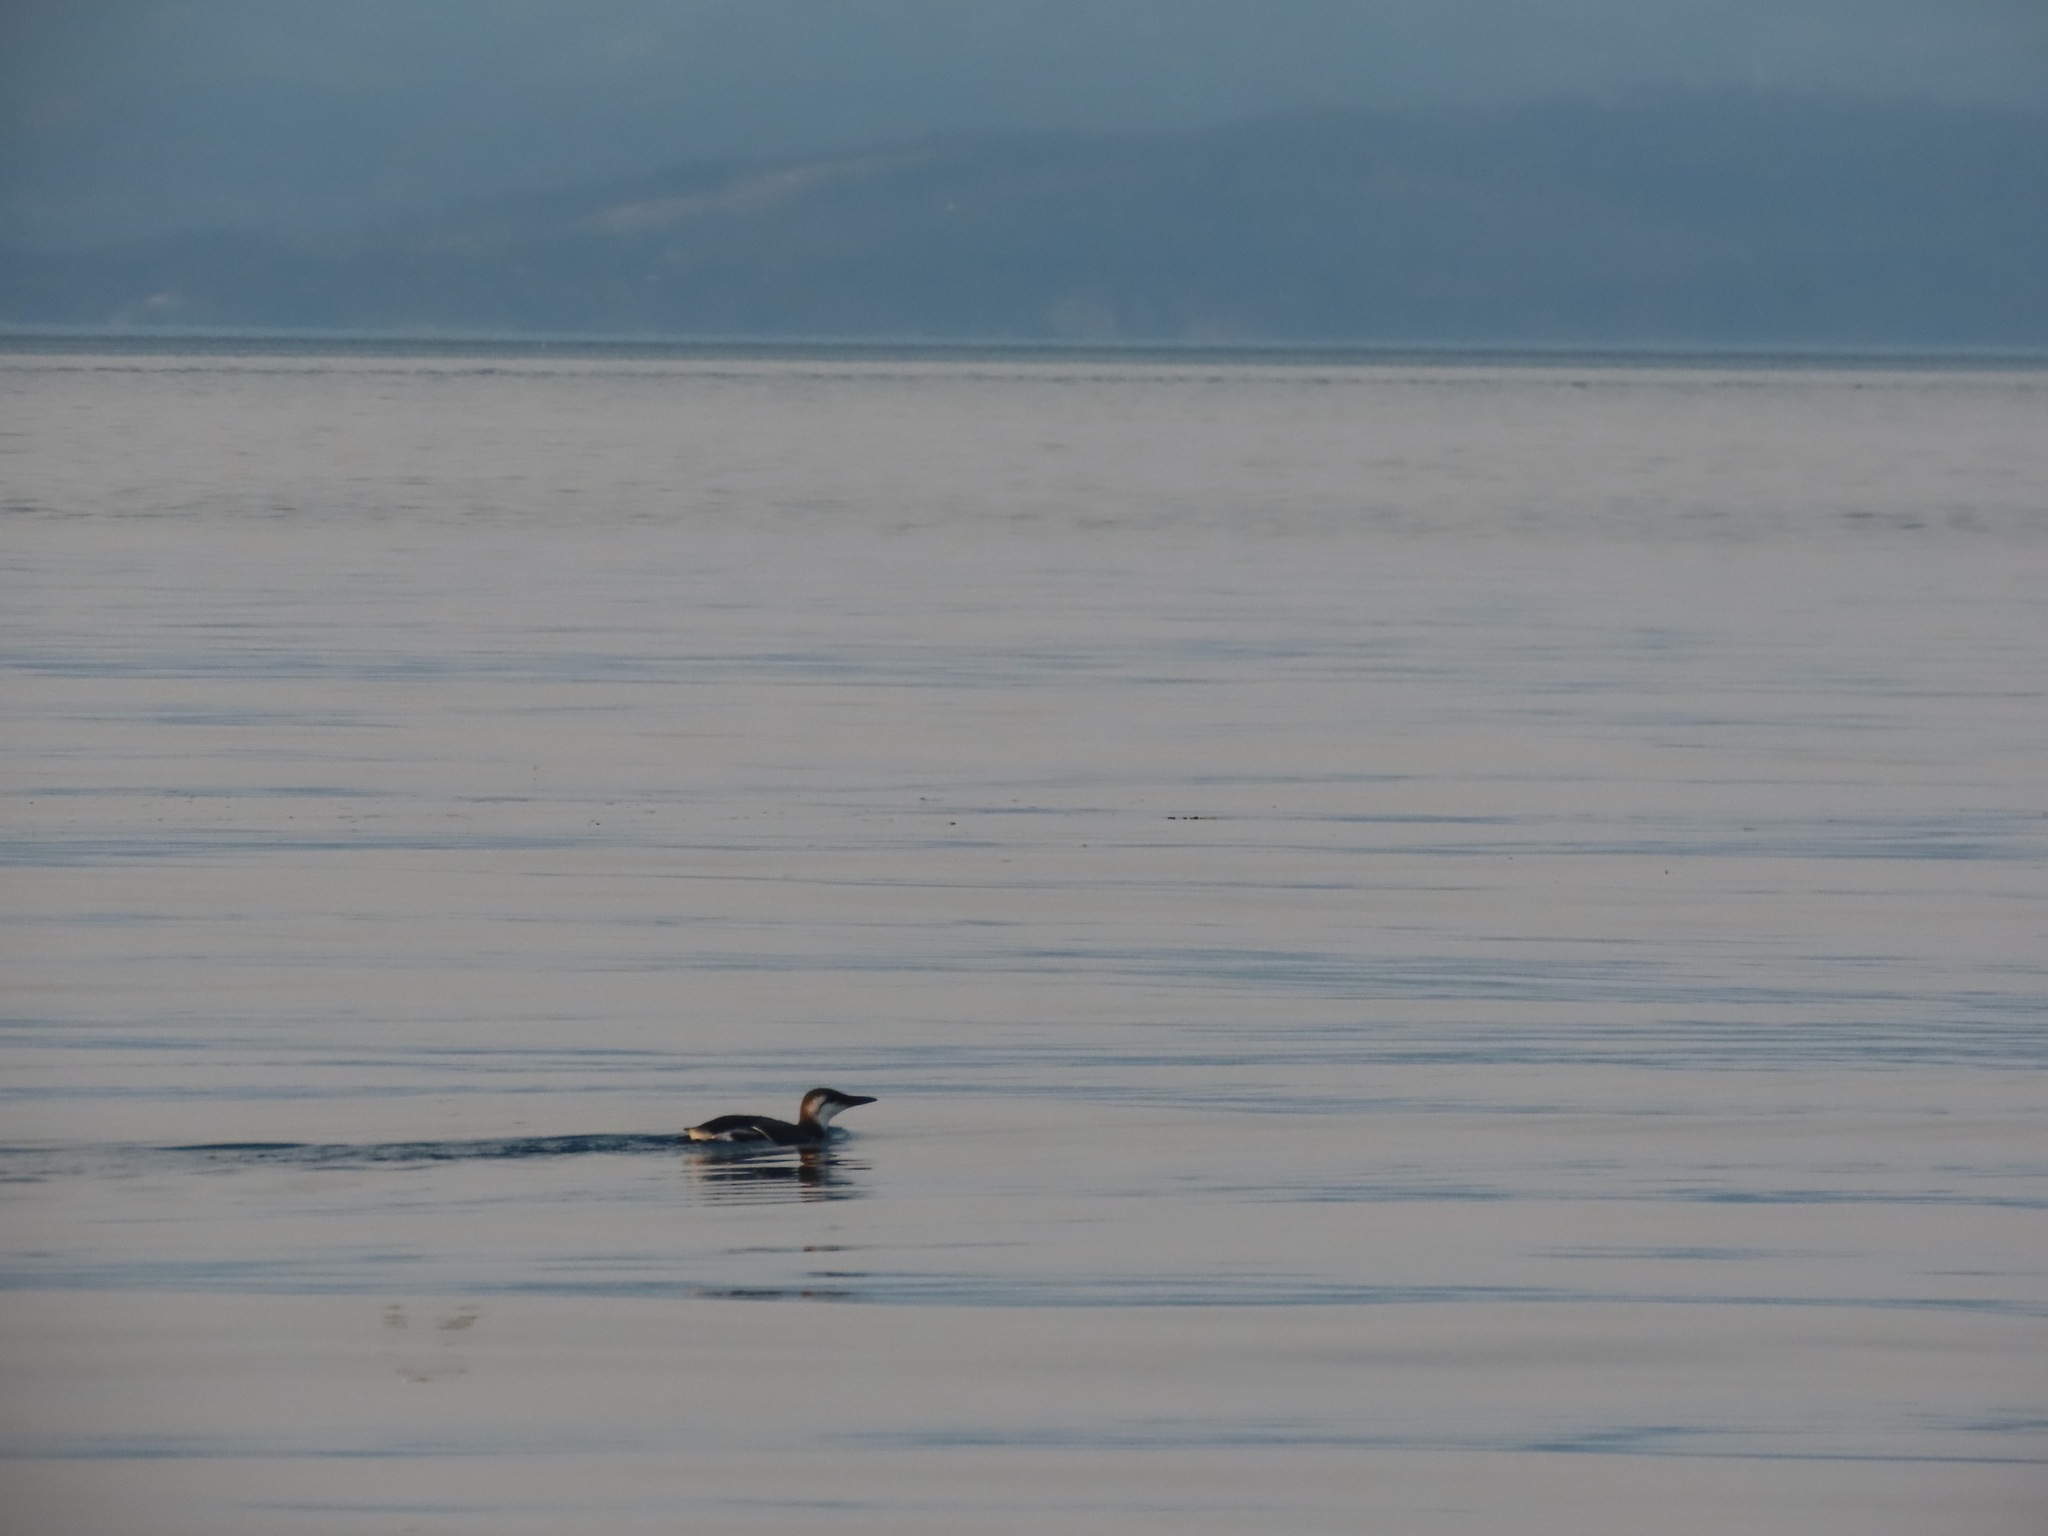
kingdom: Animalia
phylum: Chordata
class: Aves
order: Charadriiformes
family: Alcidae
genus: Uria
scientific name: Uria aalge
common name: Common murre
